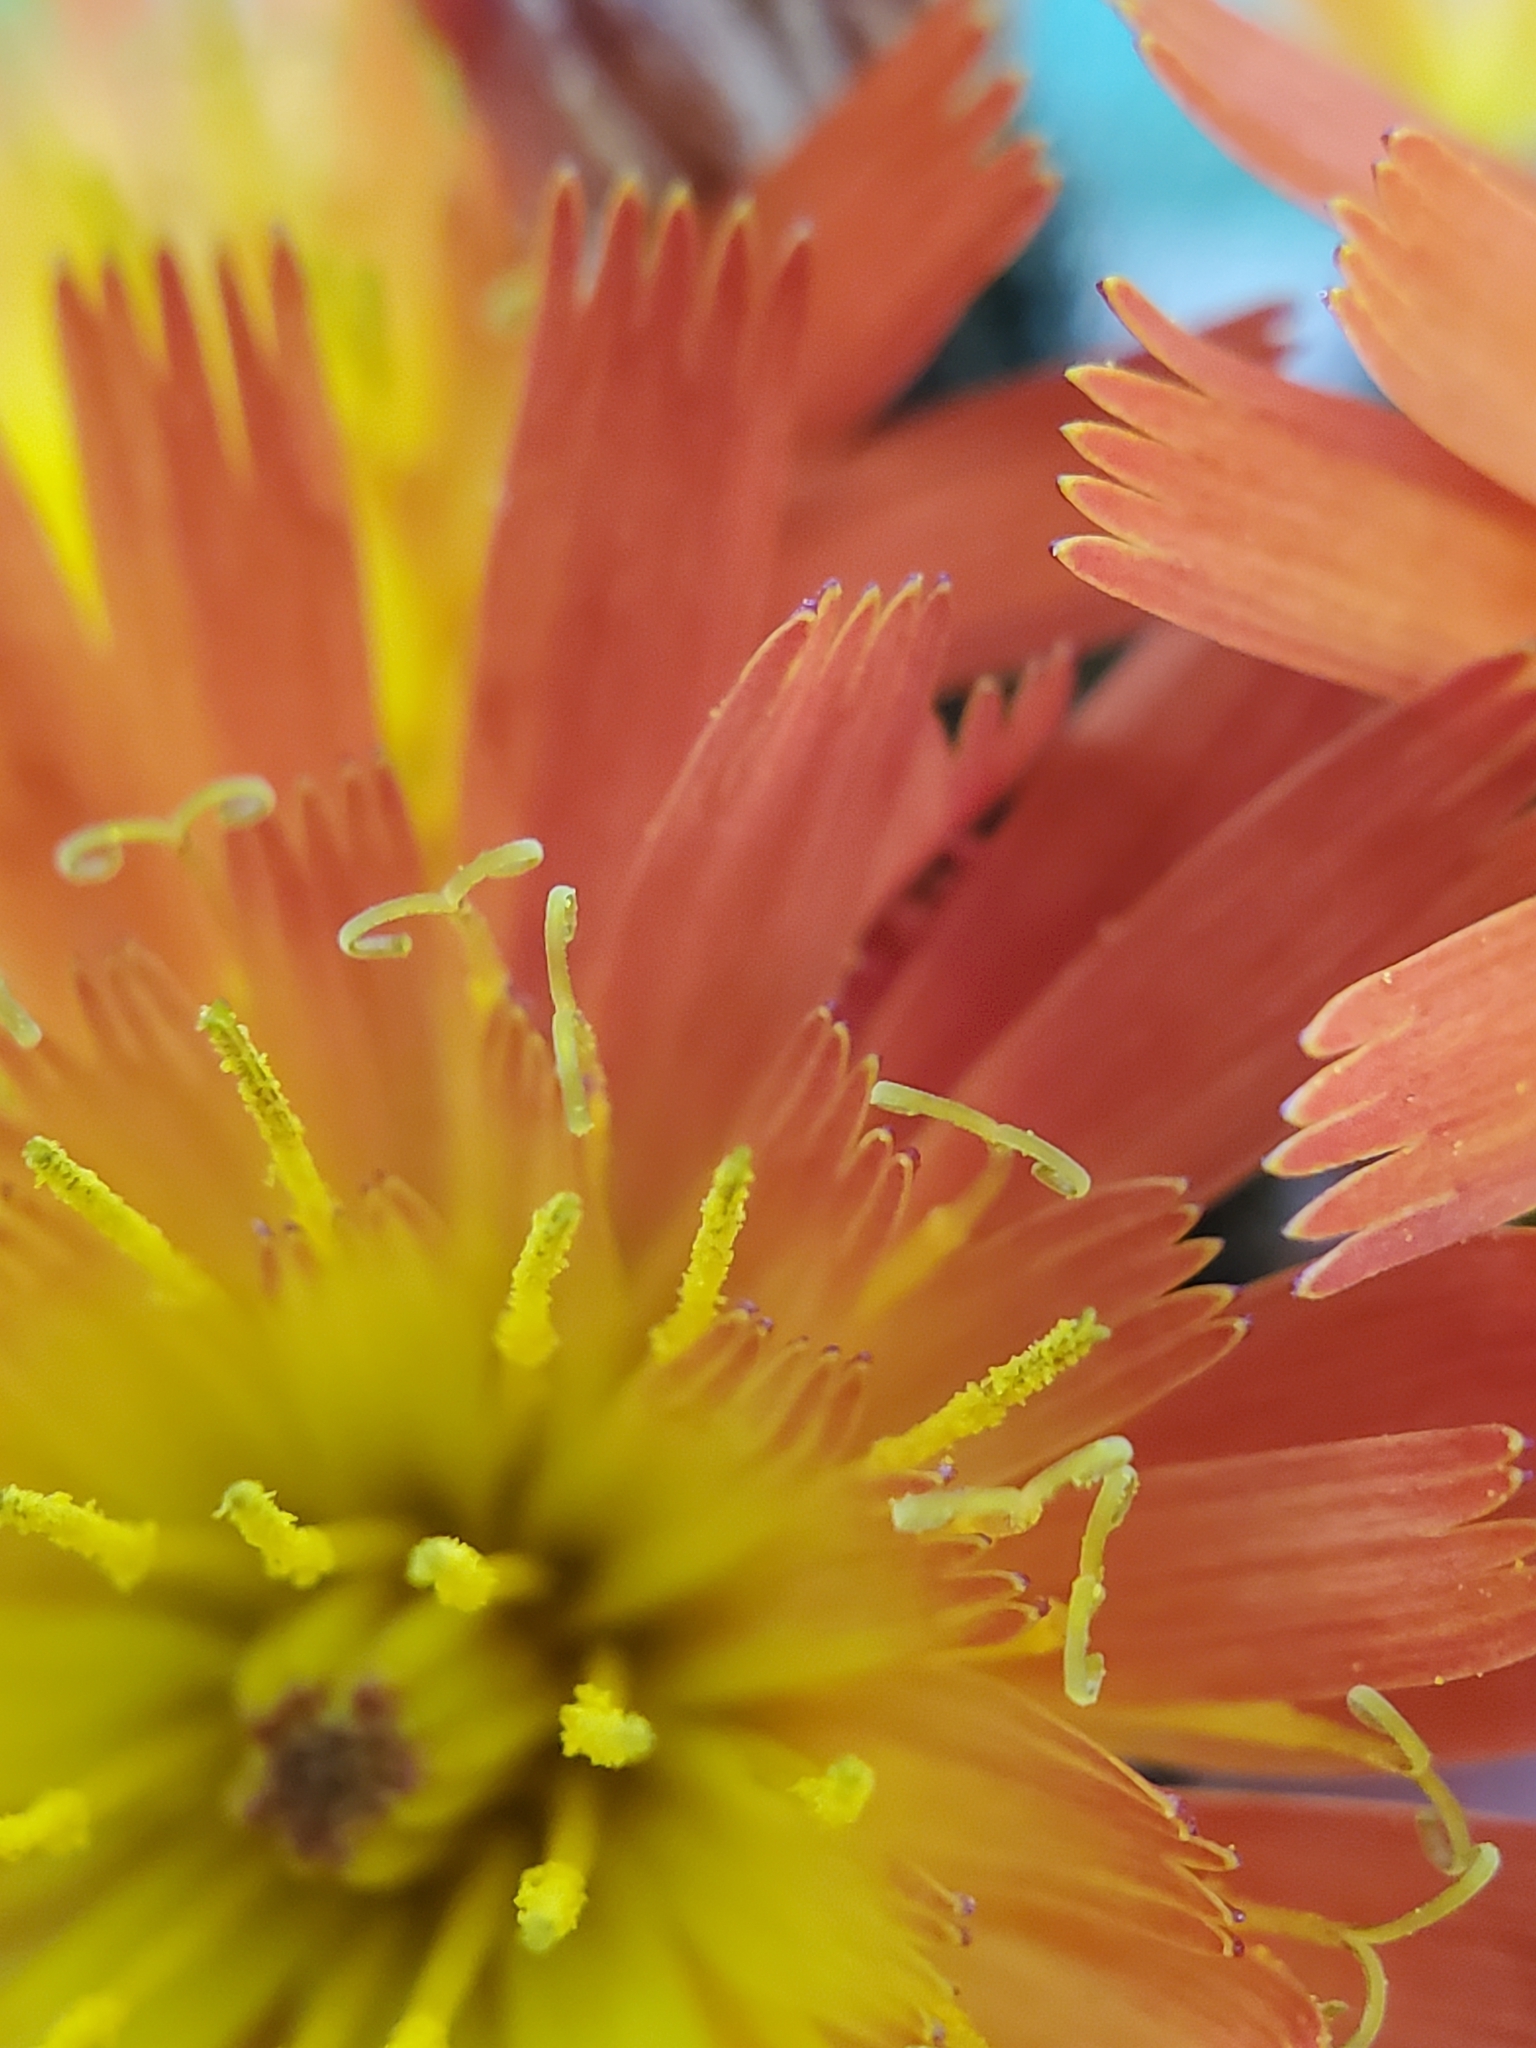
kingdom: Plantae
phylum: Tracheophyta
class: Magnoliopsida
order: Asterales
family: Asteraceae
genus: Pilosella
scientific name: Pilosella aurantiaca
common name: Fox-and-cubs
